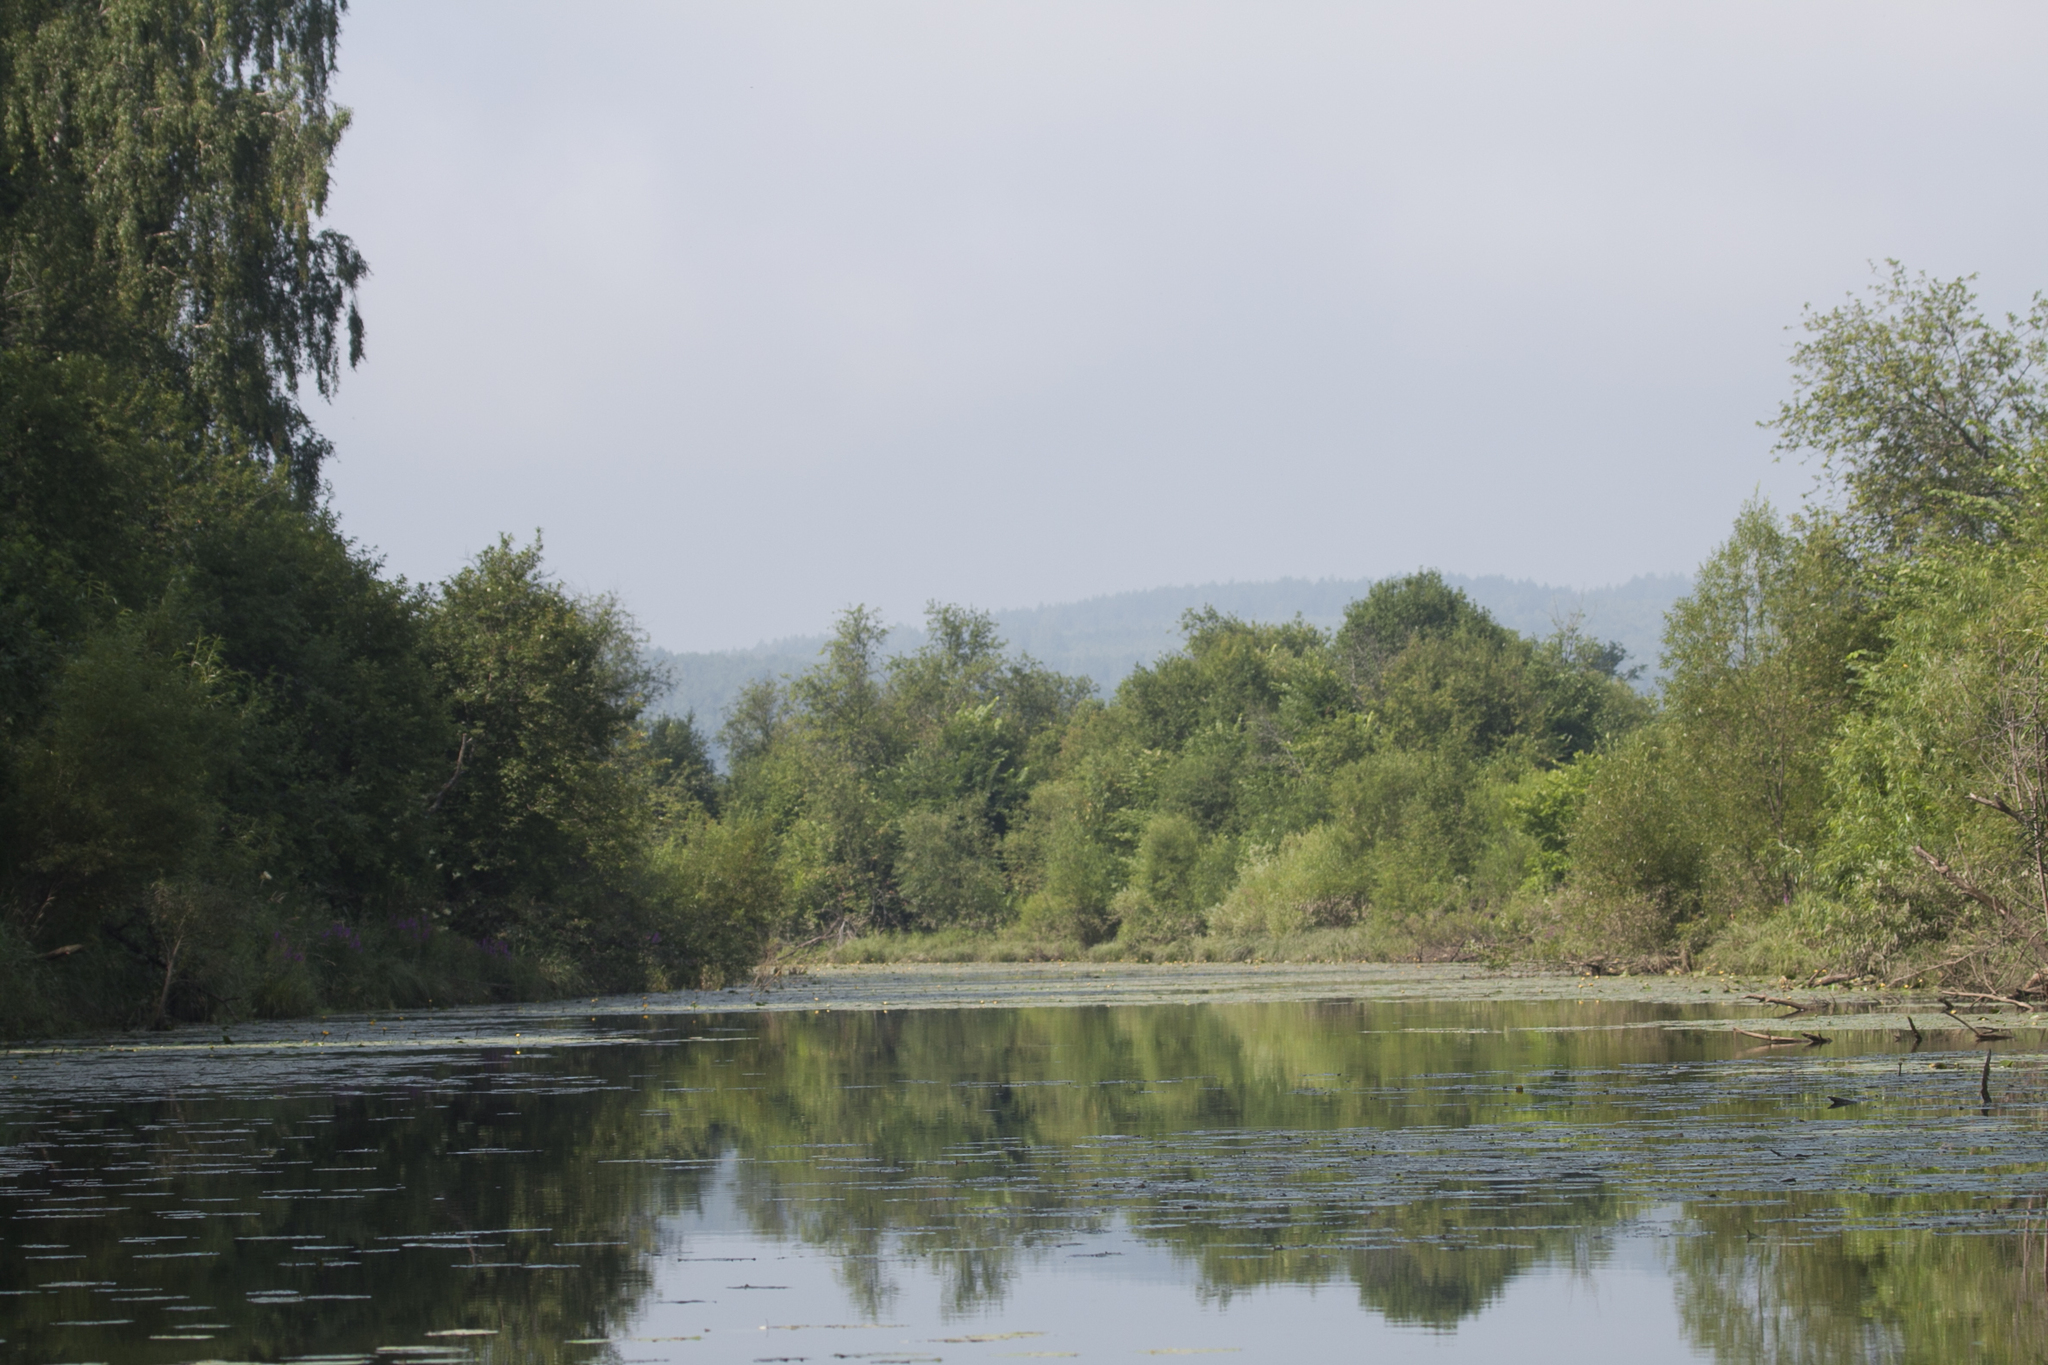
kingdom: Plantae
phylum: Tracheophyta
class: Magnoliopsida
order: Nymphaeales
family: Nymphaeaceae
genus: Nuphar
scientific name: Nuphar lutea
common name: Yellow water-lily
